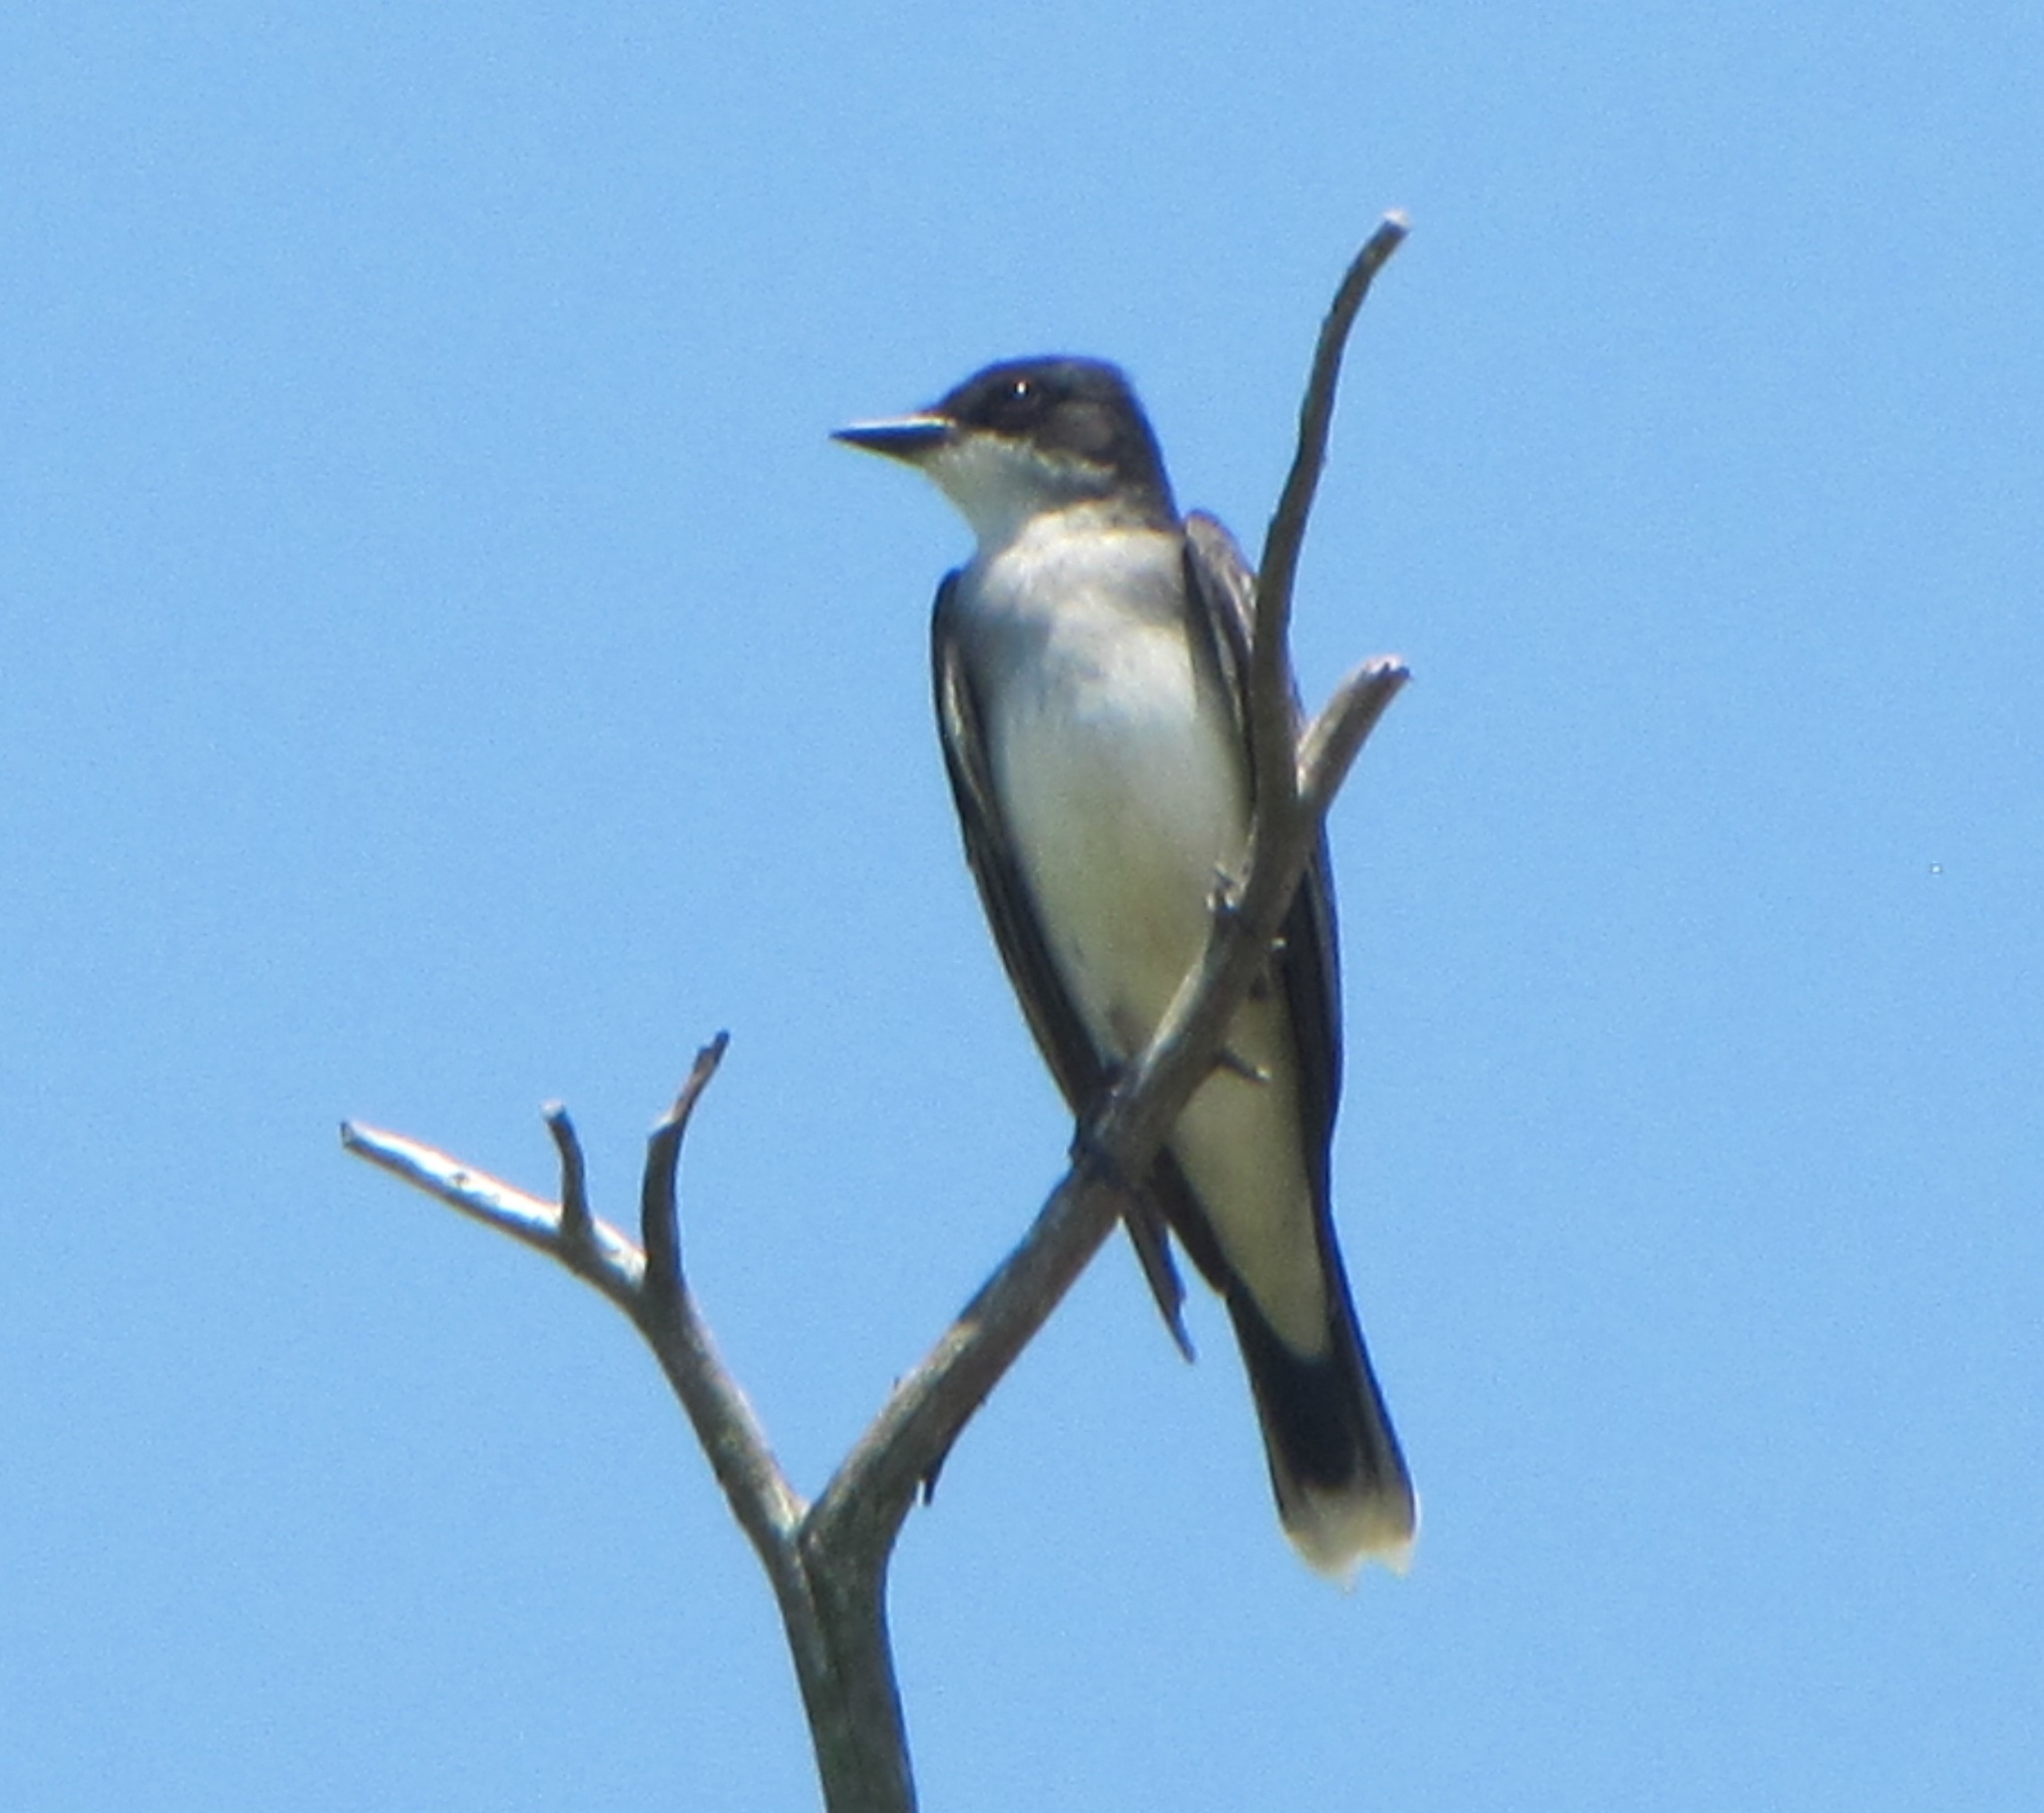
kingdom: Animalia
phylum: Chordata
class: Aves
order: Passeriformes
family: Tyrannidae
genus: Tyrannus
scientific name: Tyrannus tyrannus
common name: Eastern kingbird
